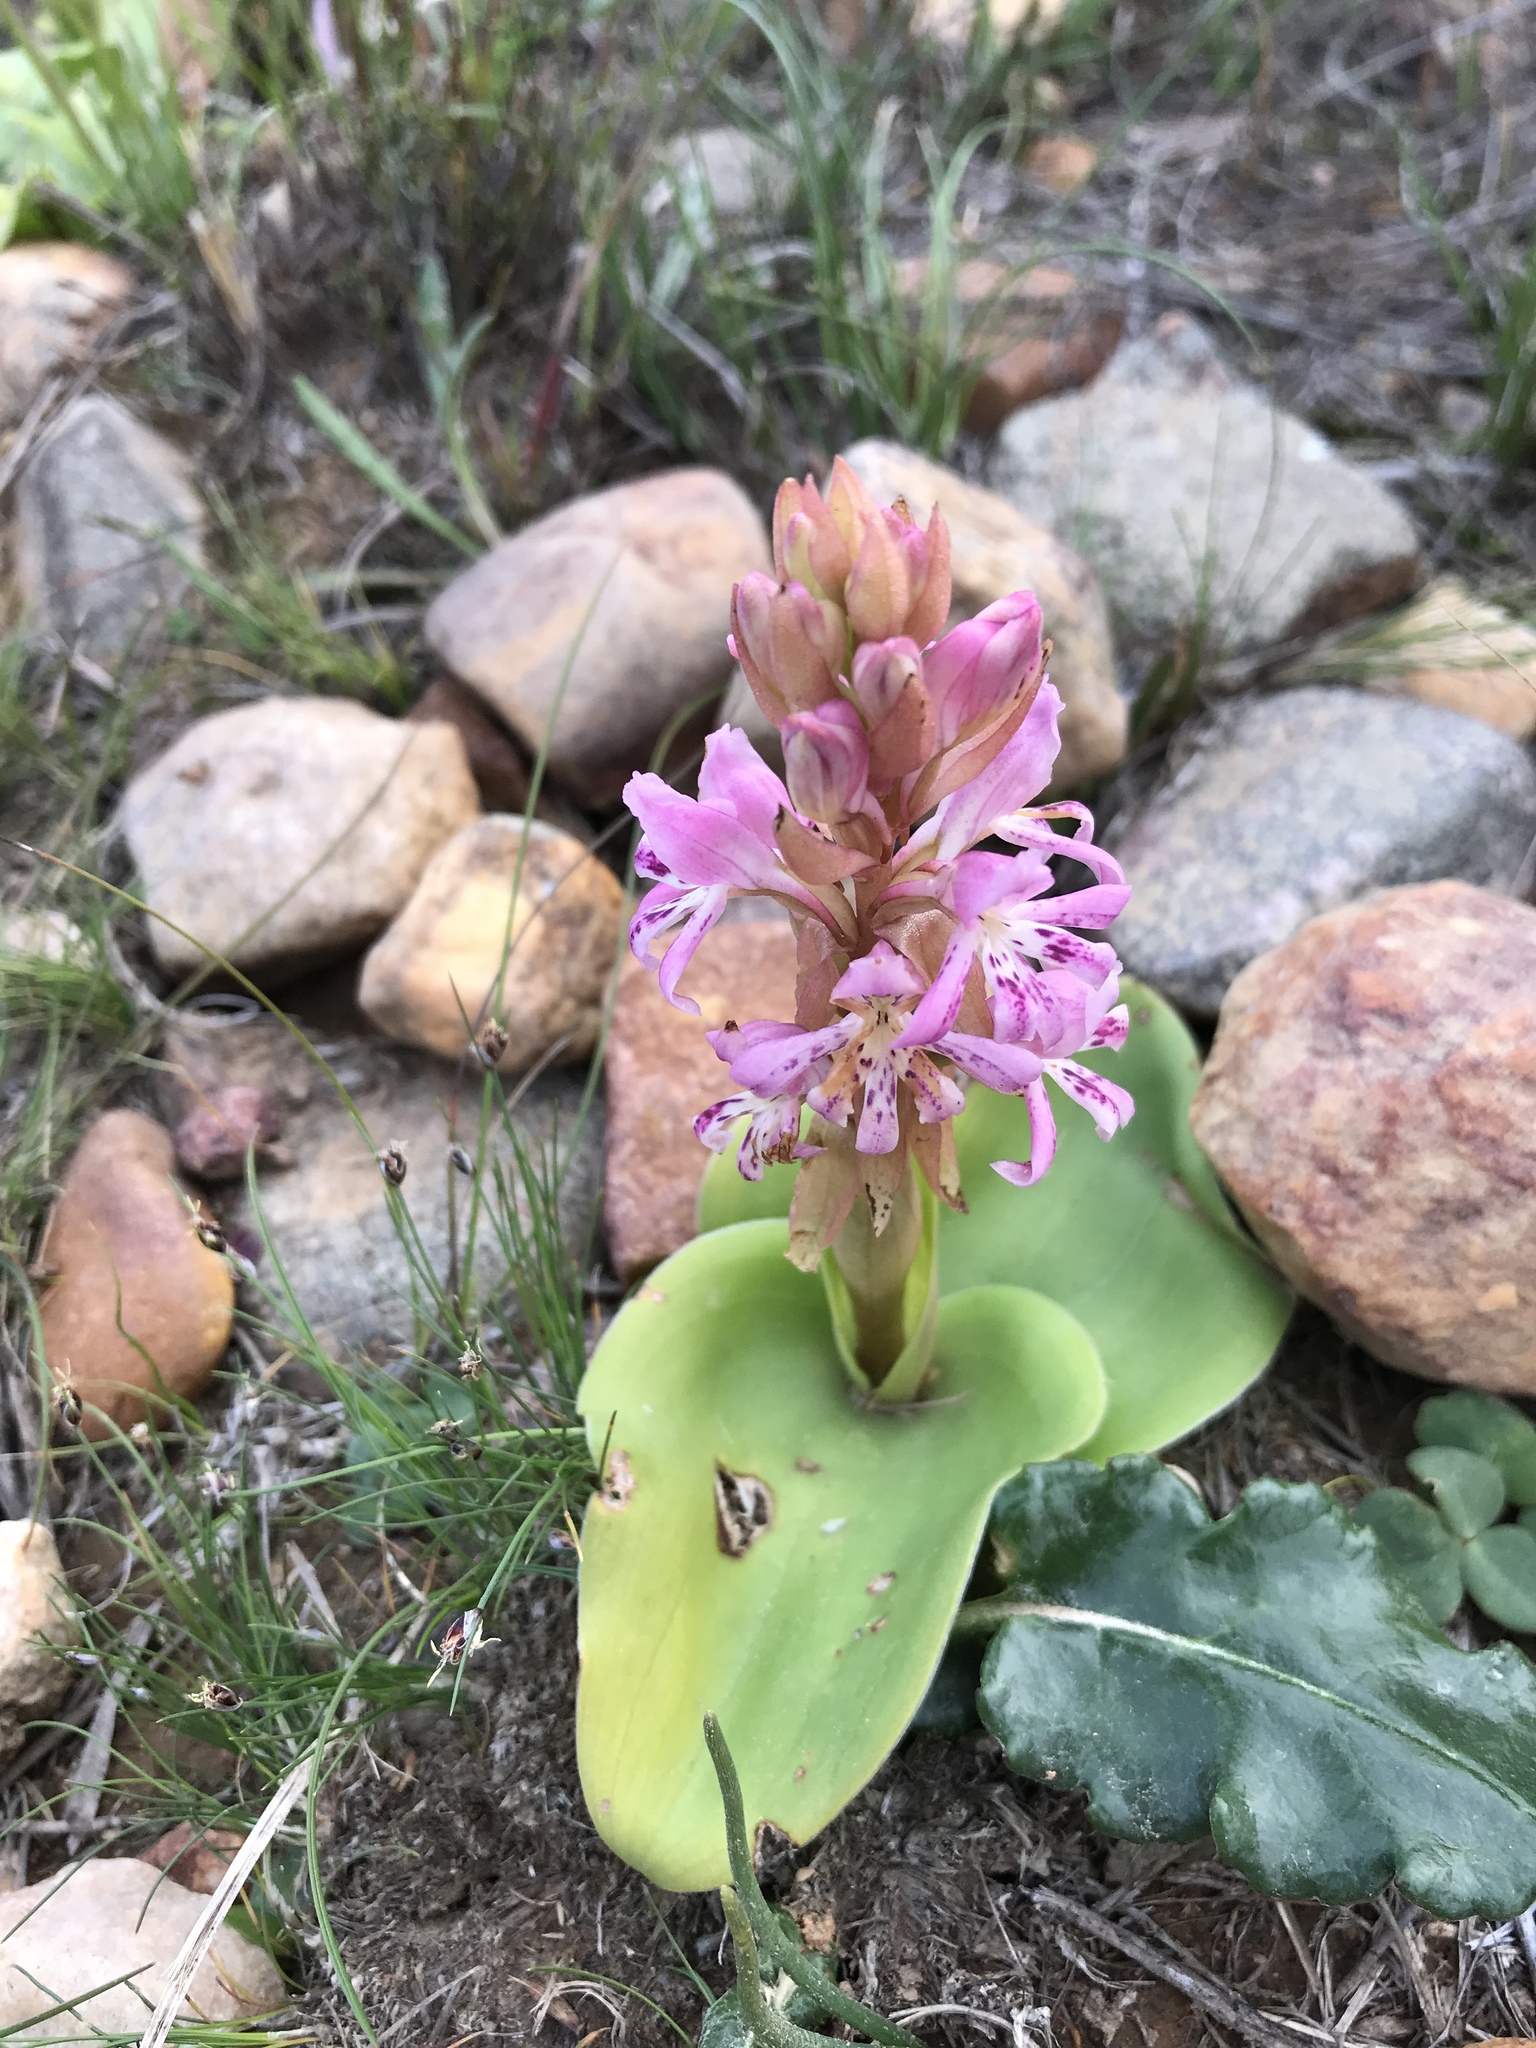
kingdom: Plantae
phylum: Tracheophyta
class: Liliopsida
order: Asparagales
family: Orchidaceae
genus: Satyrium
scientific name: Satyrium erectum
